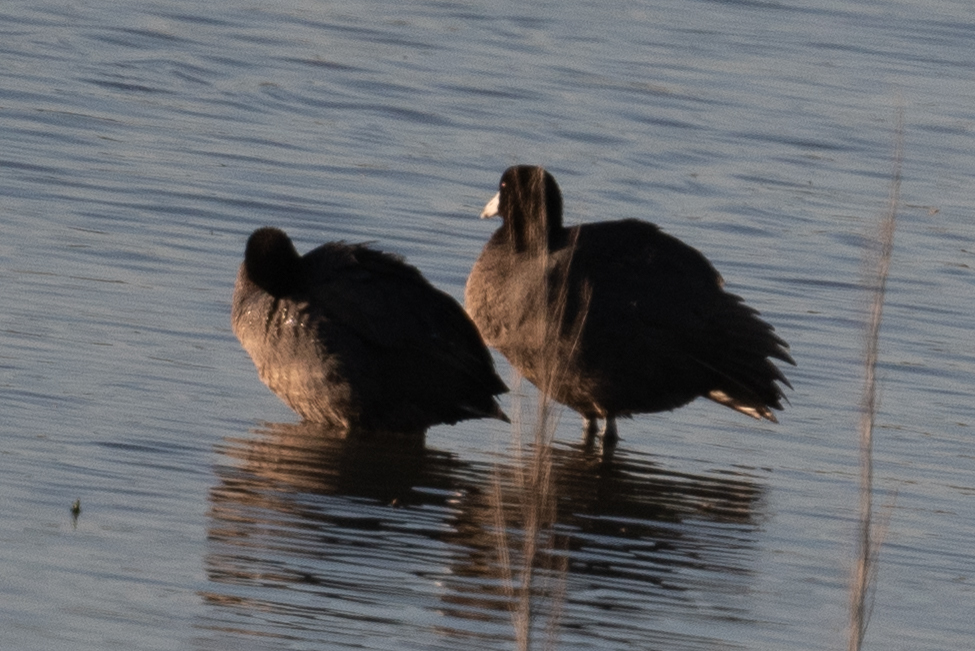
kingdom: Animalia
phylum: Chordata
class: Aves
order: Gruiformes
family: Rallidae
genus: Fulica
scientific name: Fulica americana
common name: American coot
